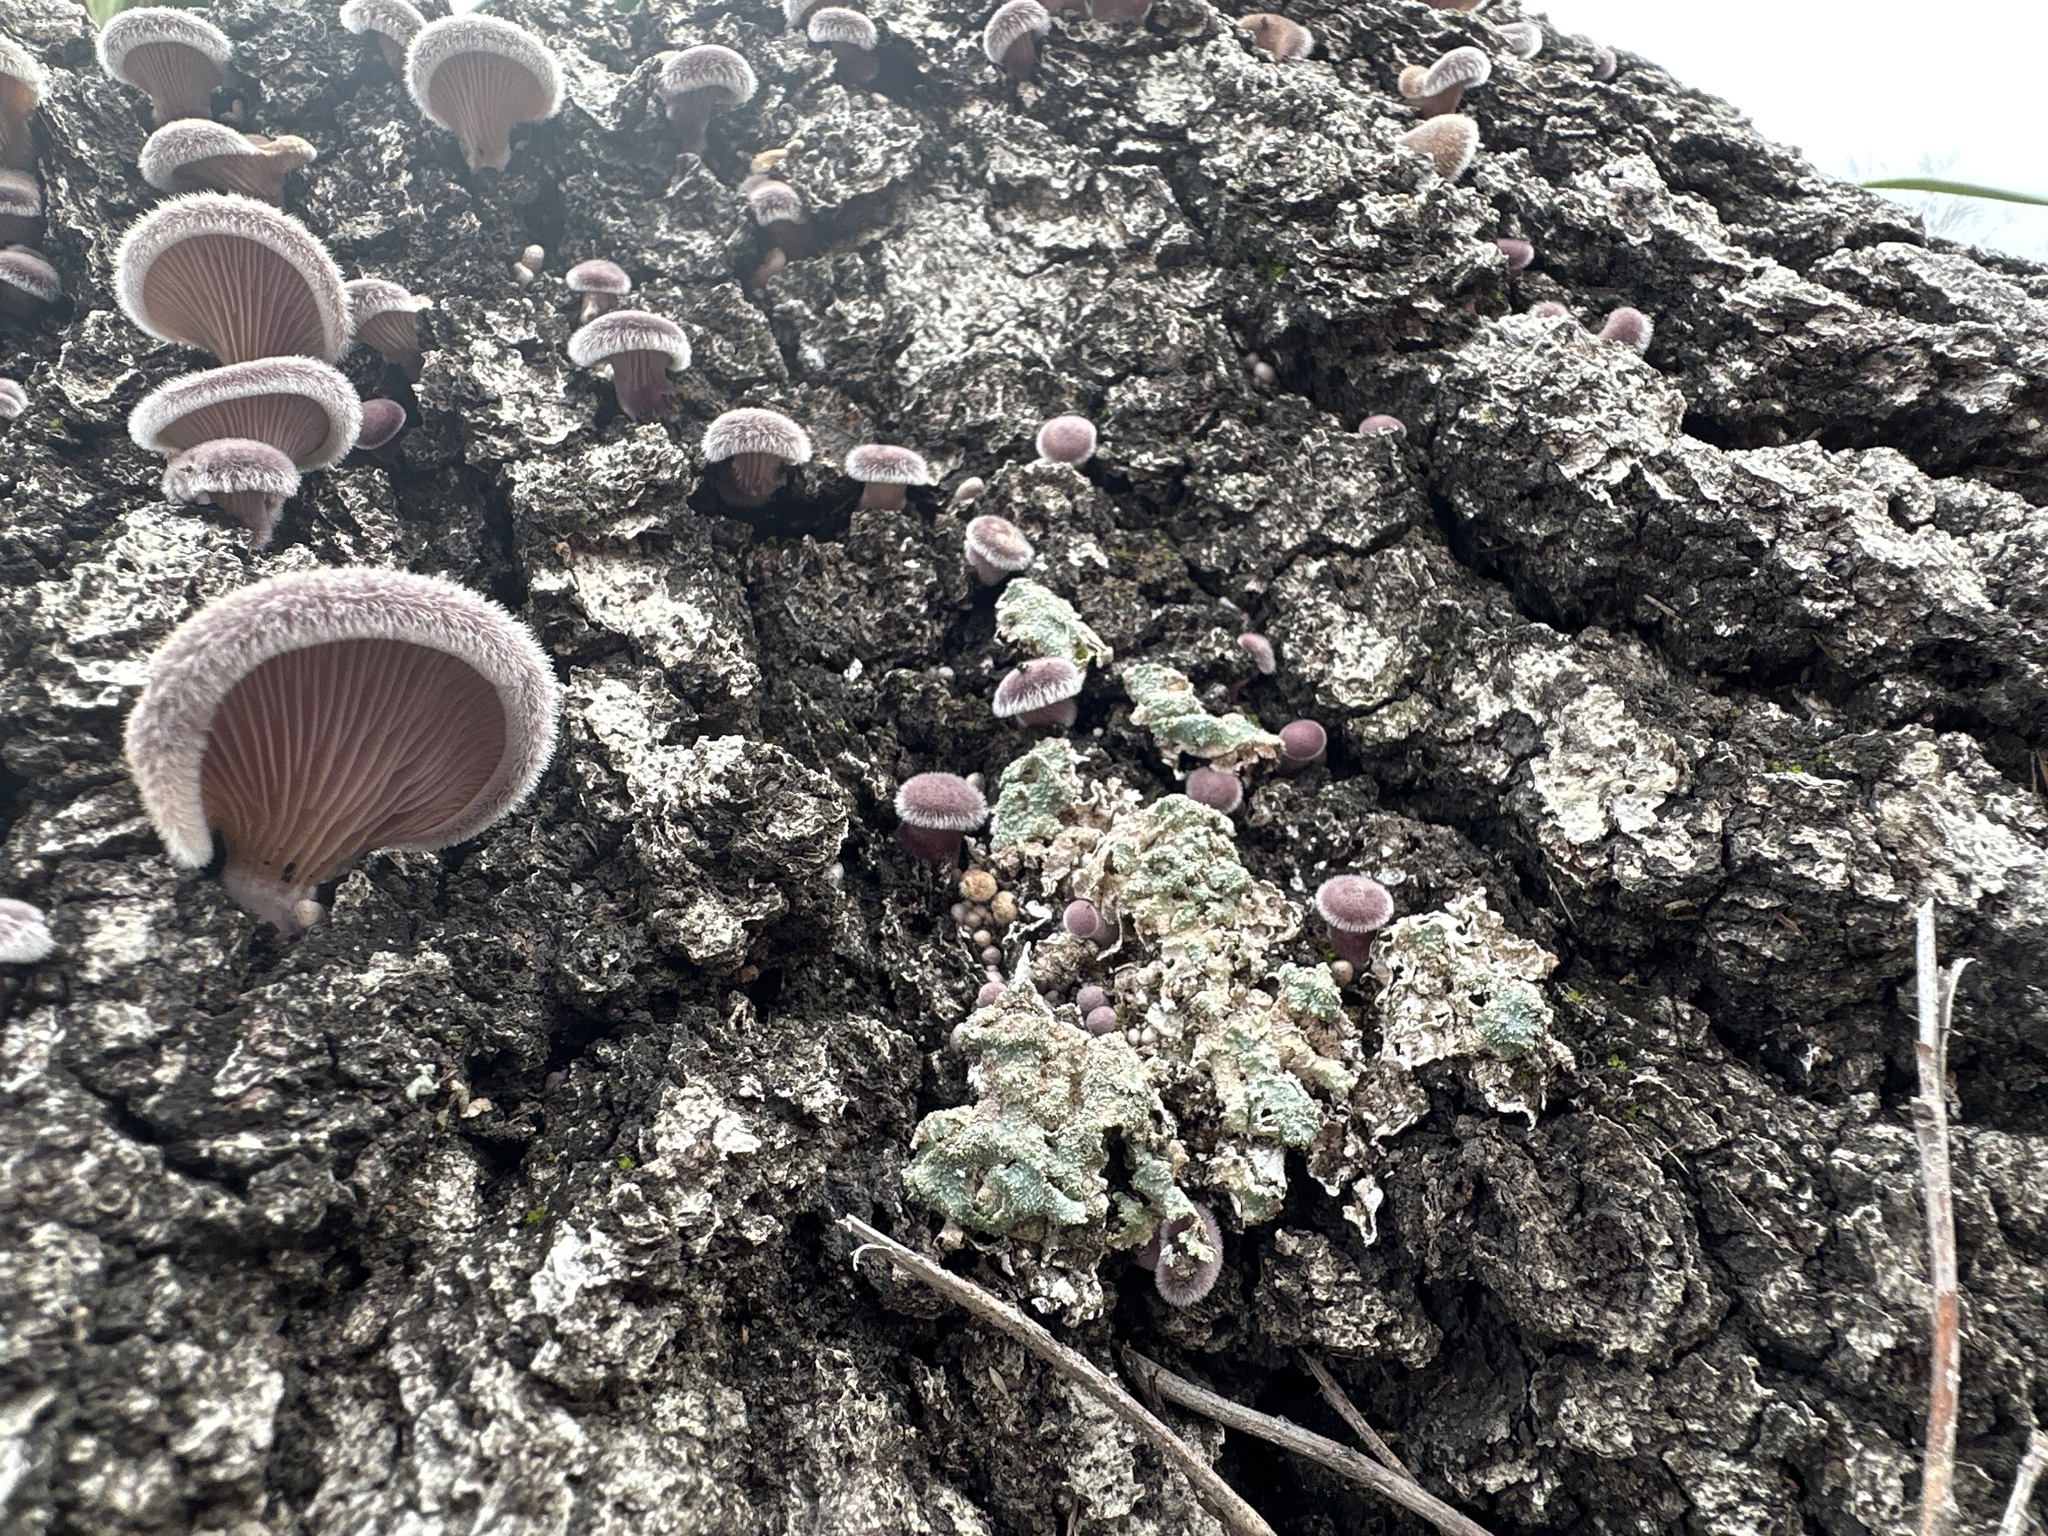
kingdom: Fungi
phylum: Basidiomycota
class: Agaricomycetes
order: Polyporales
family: Panaceae
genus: Panus
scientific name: Panus neostrigosus
